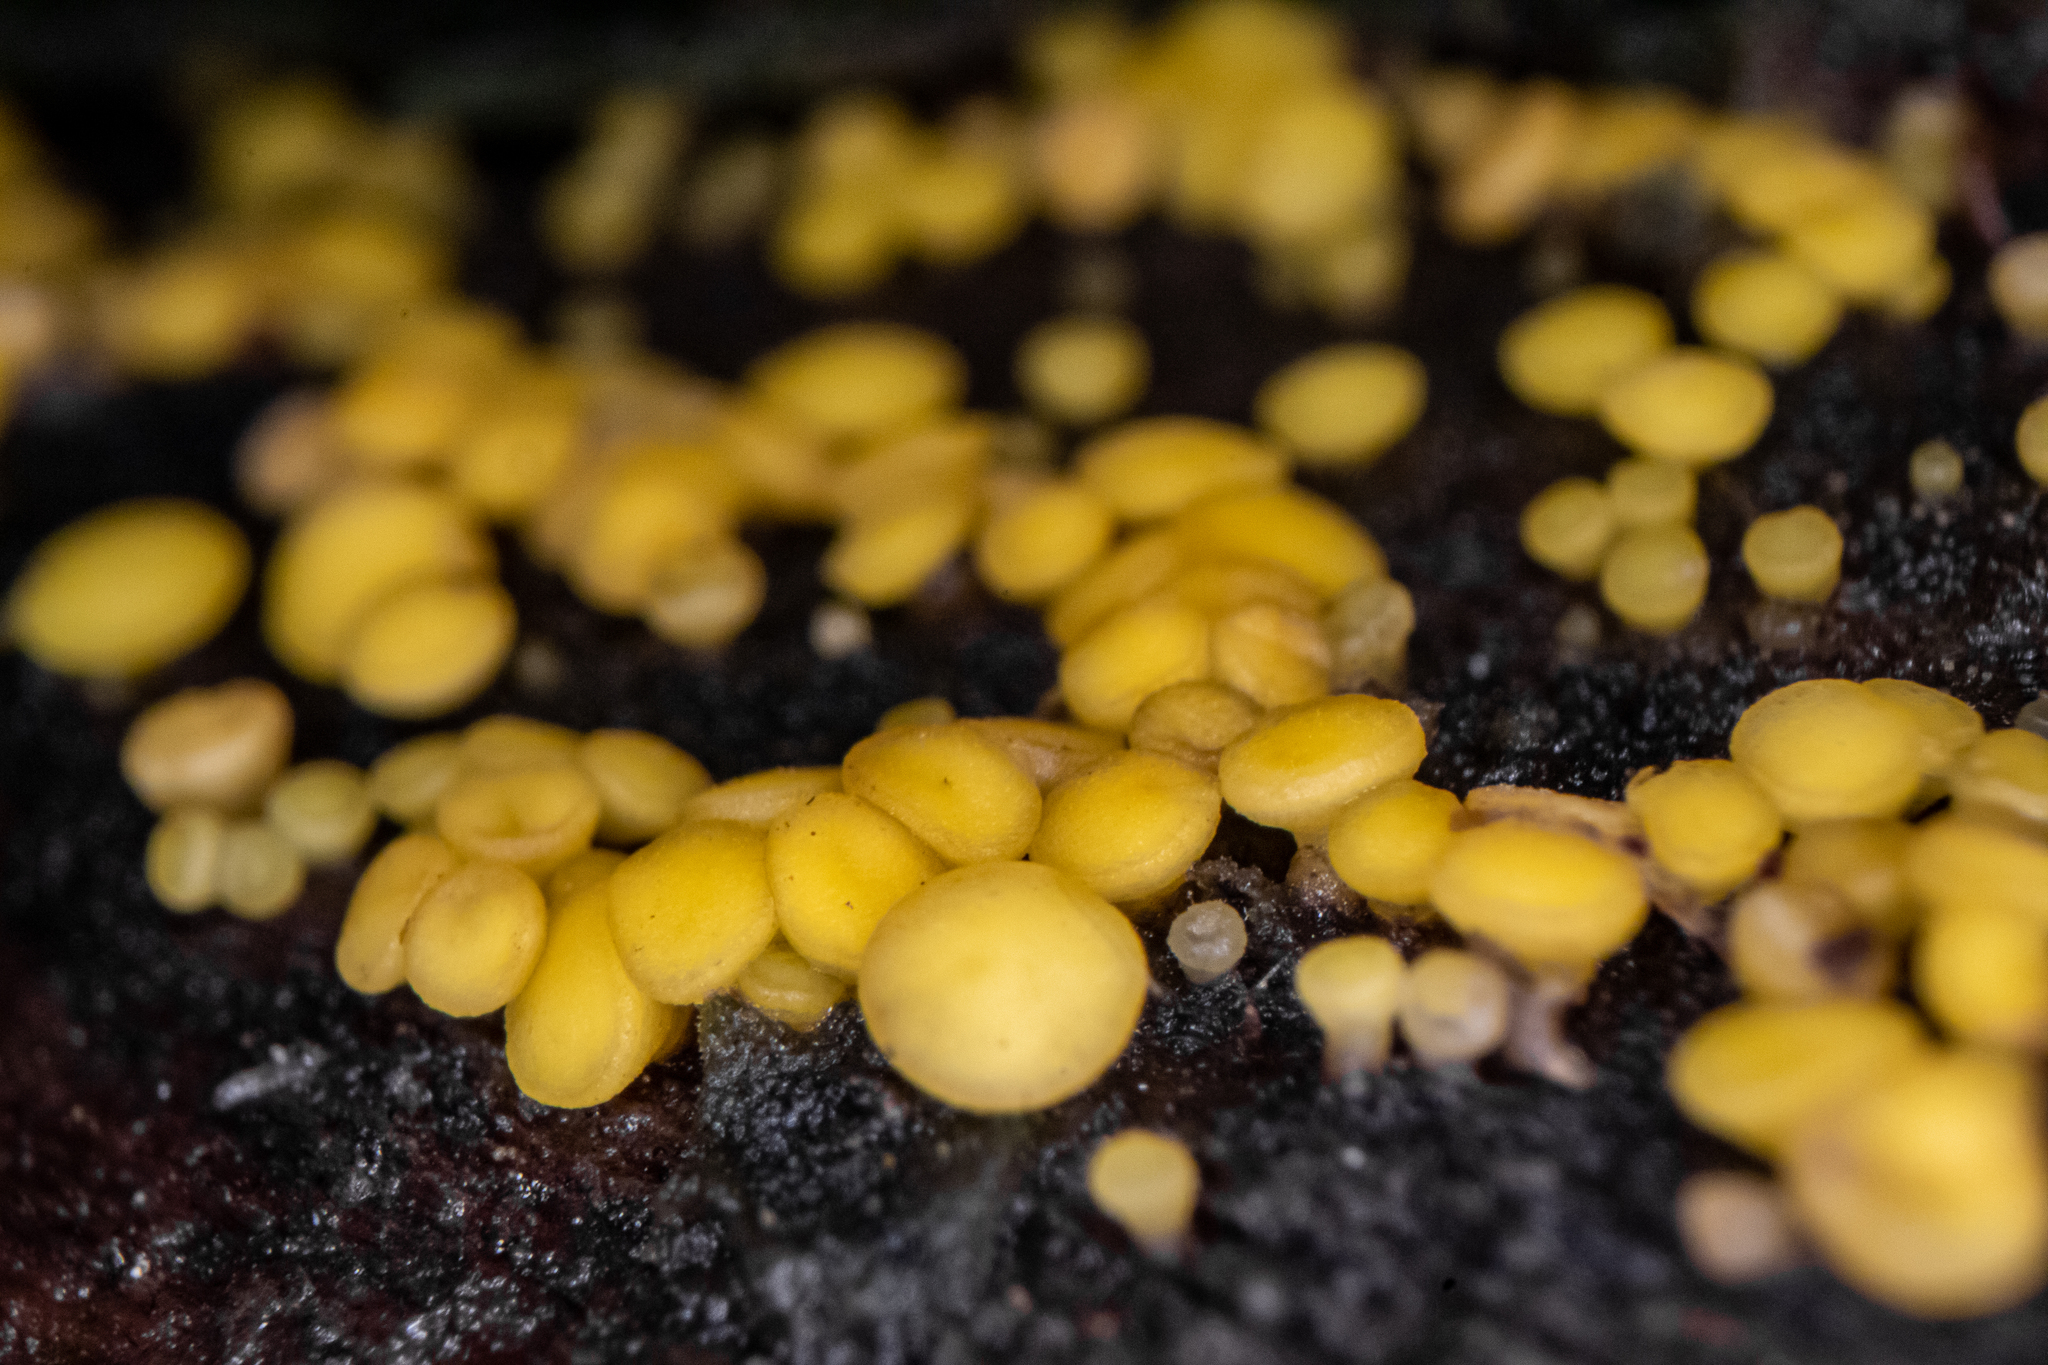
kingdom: Fungi
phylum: Ascomycota
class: Leotiomycetes
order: Helotiales
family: Pezizellaceae
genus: Calycina
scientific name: Calycina citrina
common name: Yellow fairy cups
